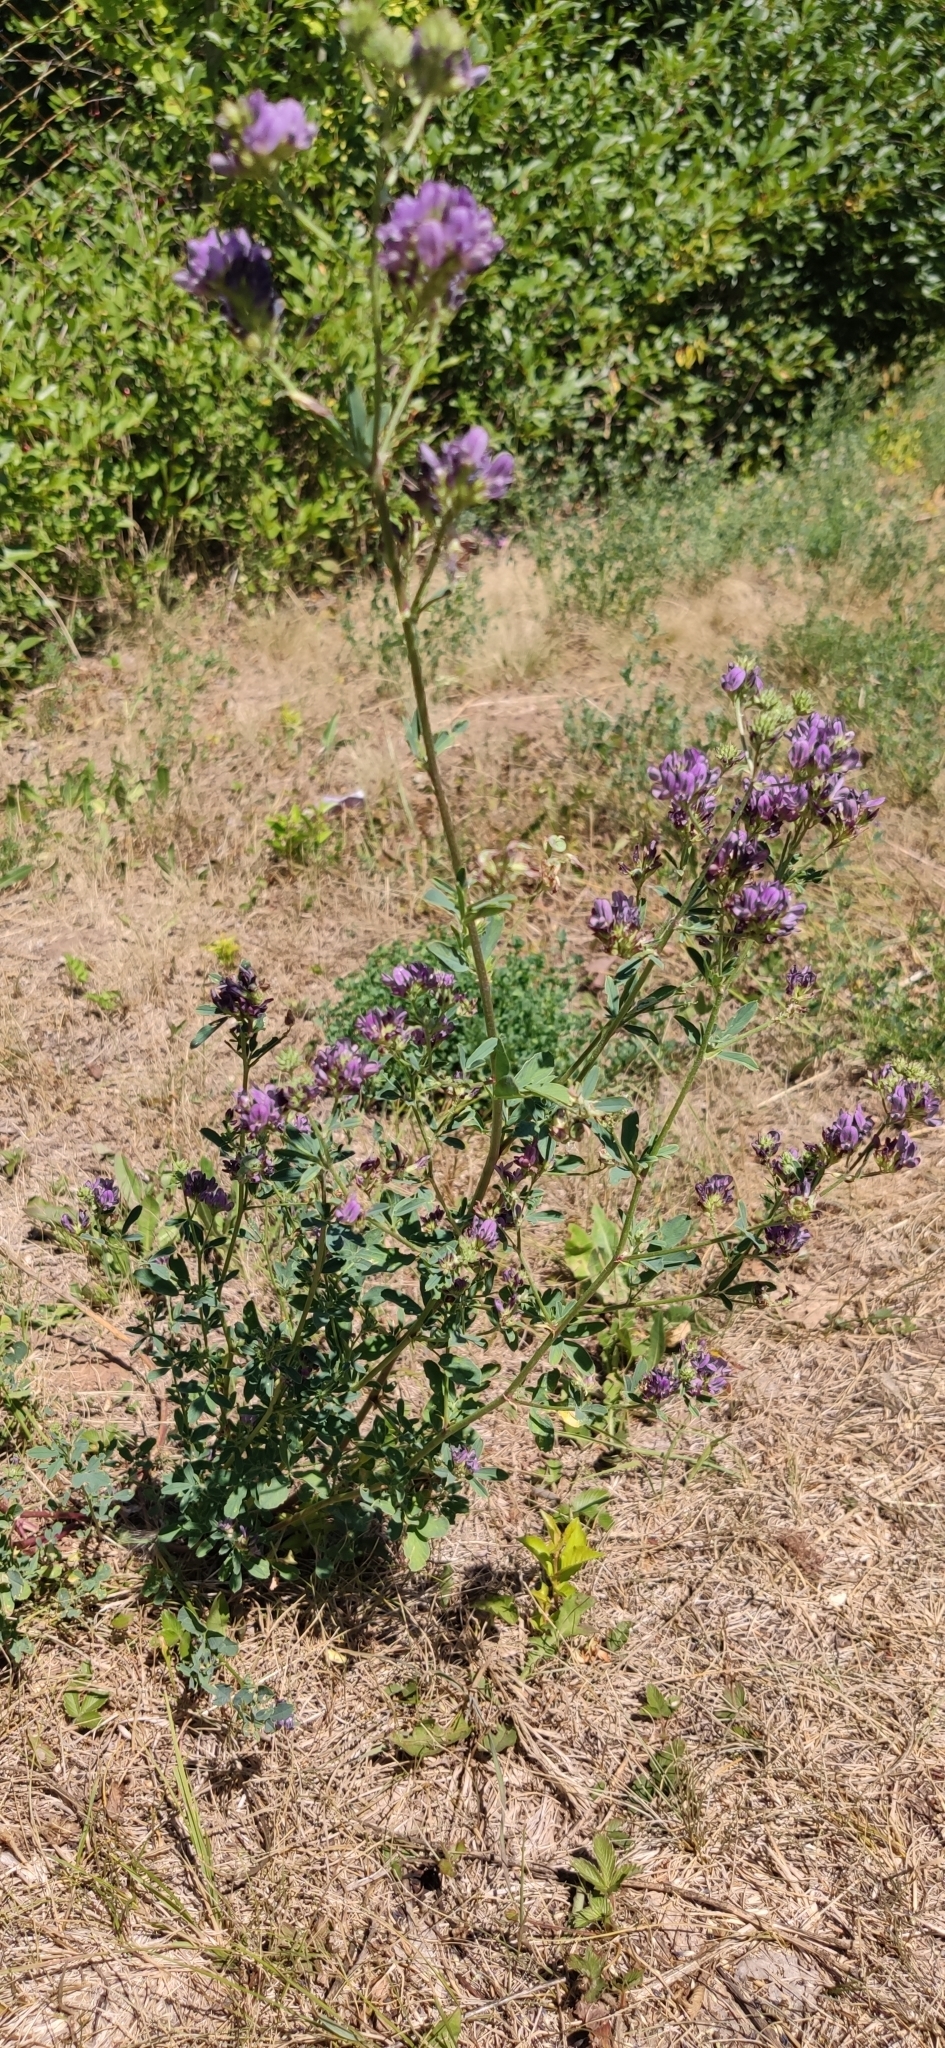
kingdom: Plantae
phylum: Tracheophyta
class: Magnoliopsida
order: Fabales
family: Fabaceae
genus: Medicago
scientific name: Medicago sativa
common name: Alfalfa
